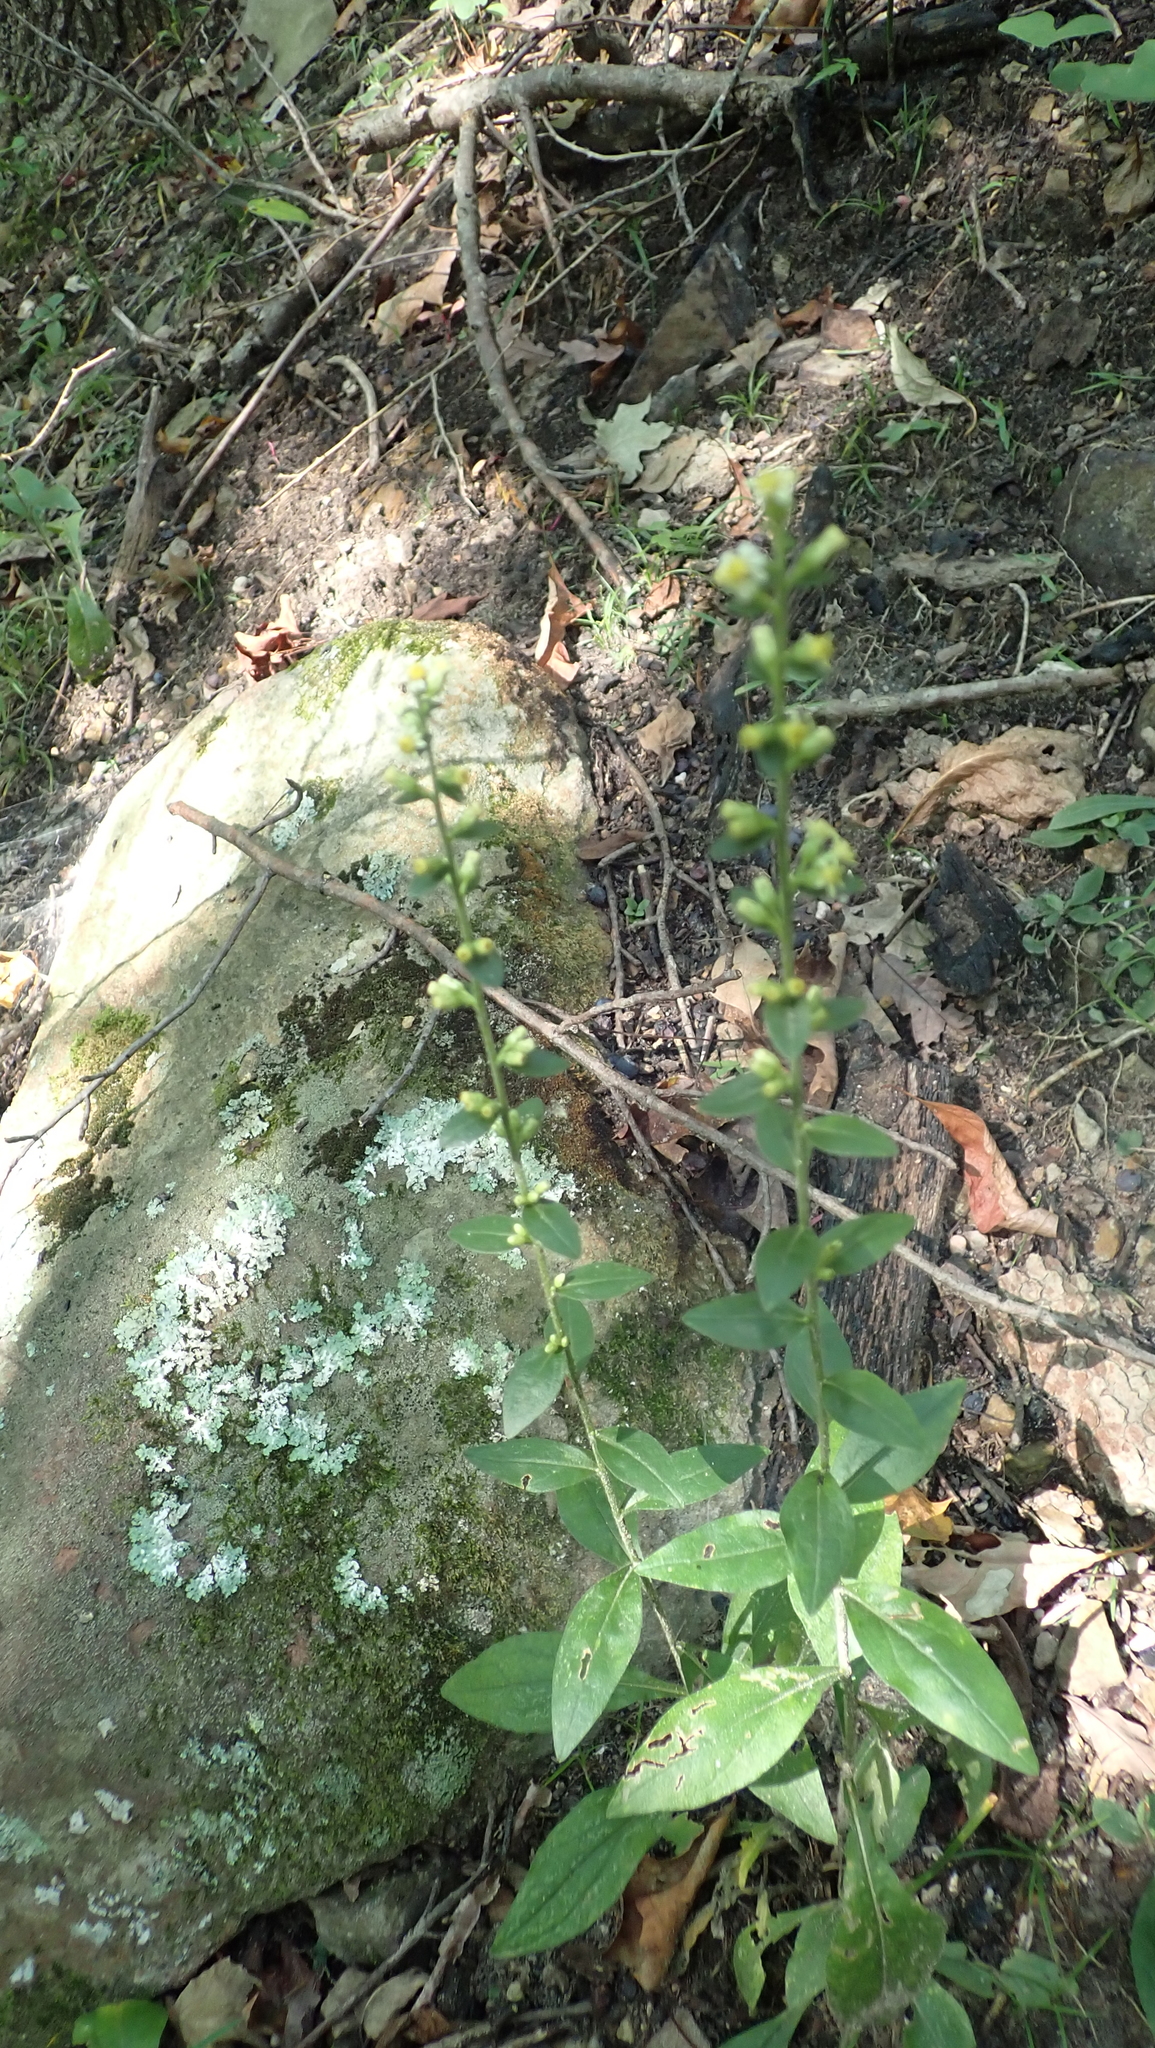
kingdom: Plantae
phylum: Tracheophyta
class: Magnoliopsida
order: Asterales
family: Asteraceae
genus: Solidago
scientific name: Solidago bicolor
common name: Silverrod
